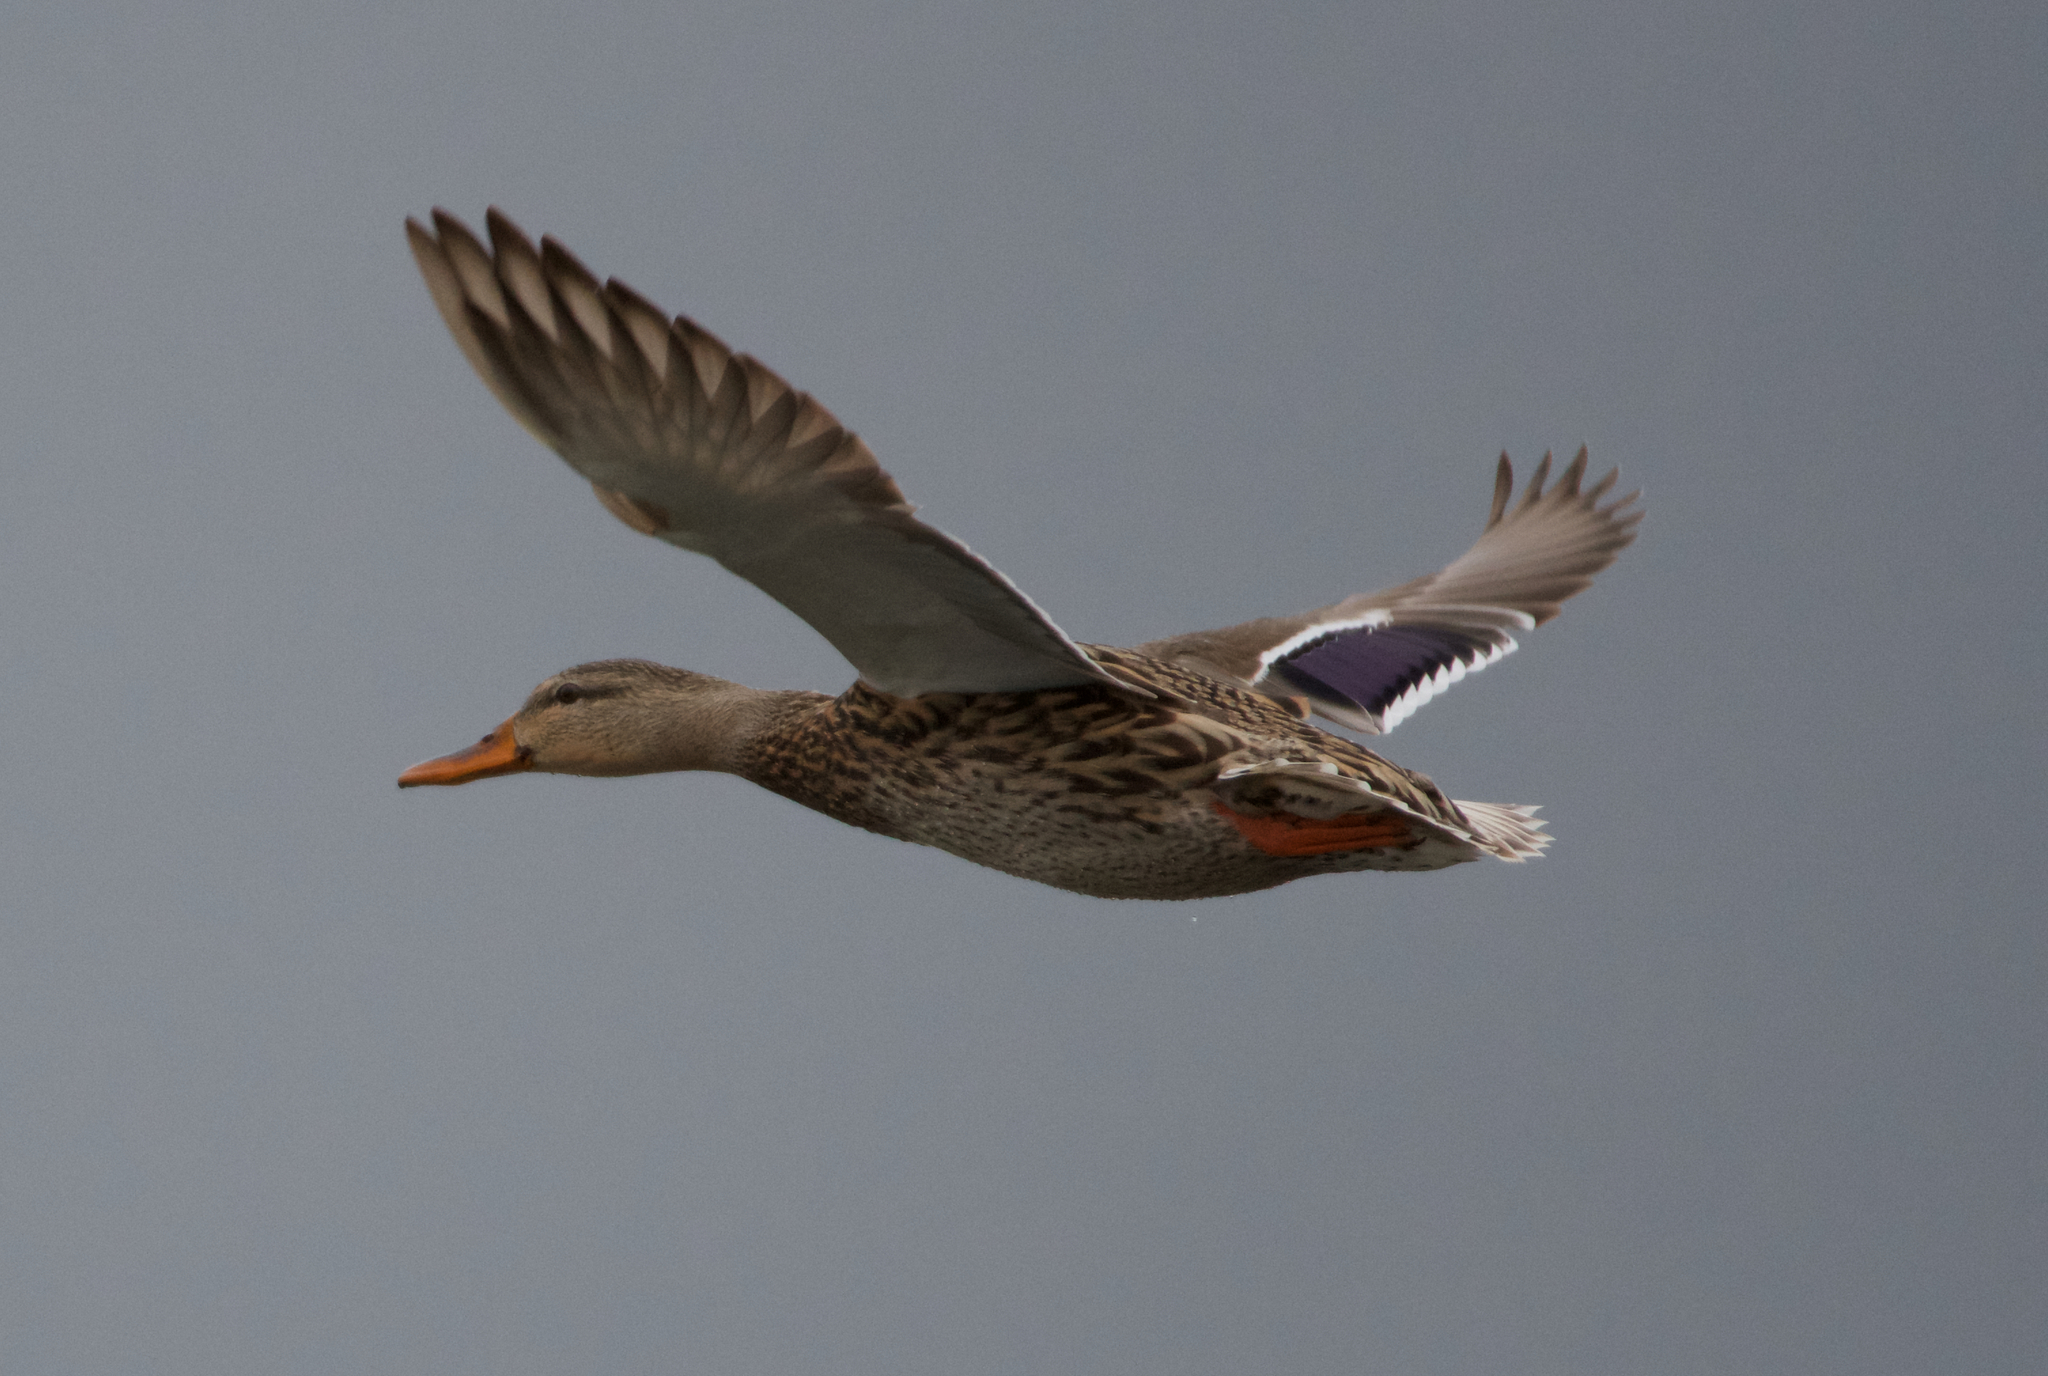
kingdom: Animalia
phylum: Chordata
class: Aves
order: Anseriformes
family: Anatidae
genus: Anas
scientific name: Anas platyrhynchos
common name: Mallard
